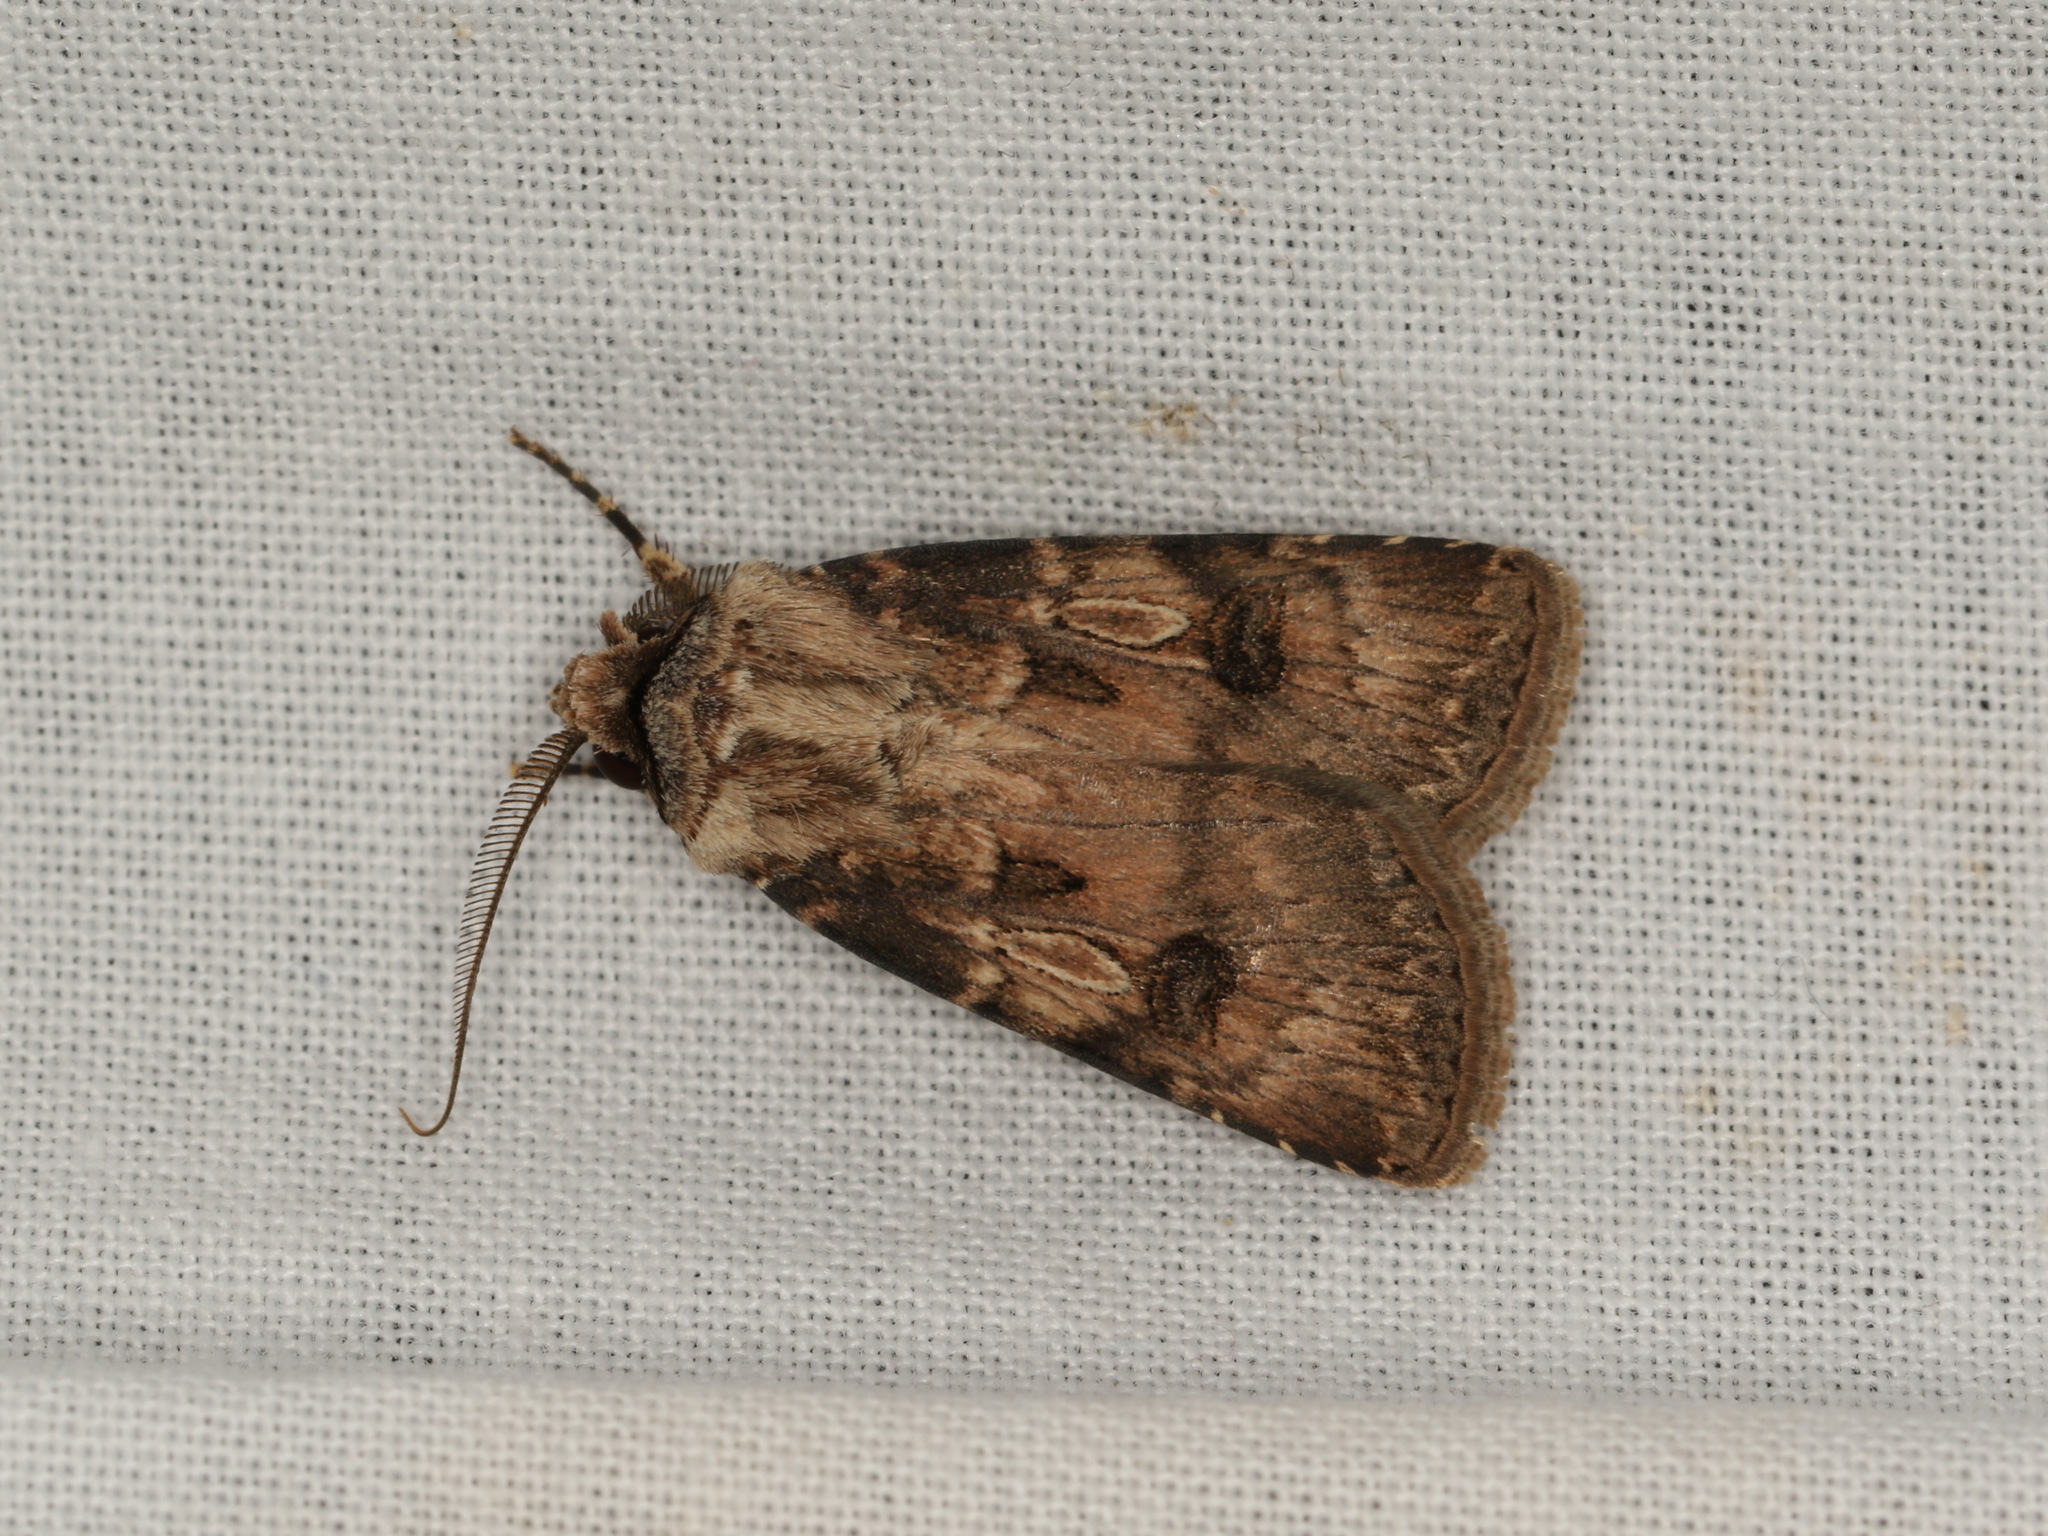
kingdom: Animalia
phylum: Arthropoda
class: Insecta
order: Lepidoptera
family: Noctuidae
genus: Agrotis
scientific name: Agrotis munda
